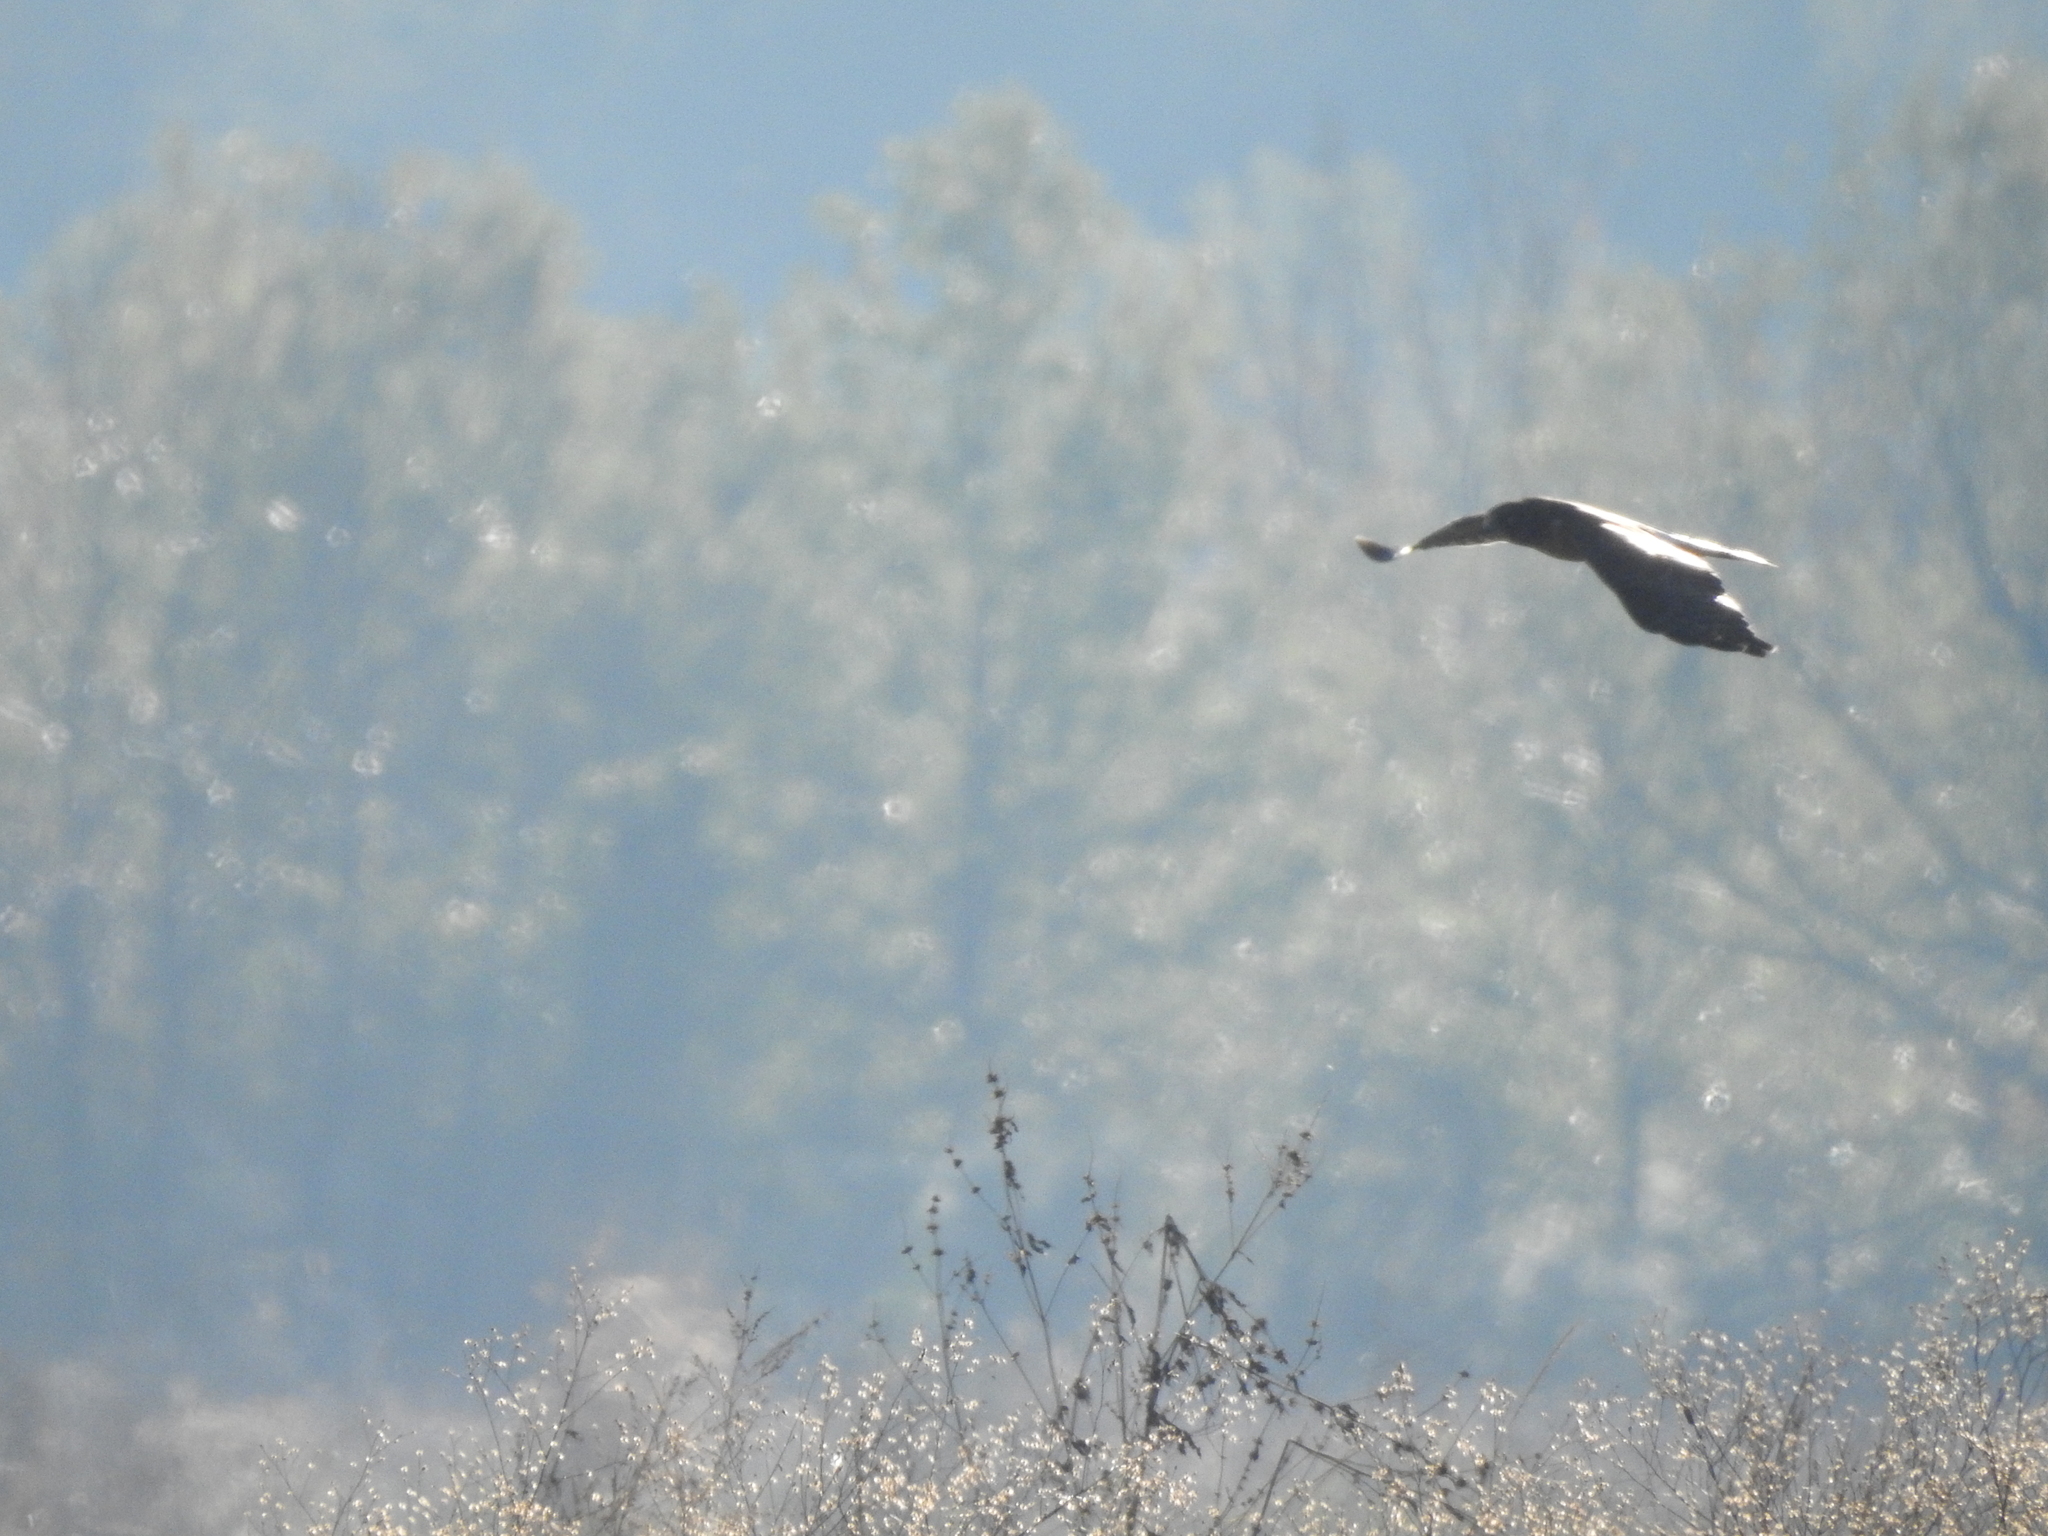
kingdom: Animalia
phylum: Chordata
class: Aves
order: Accipitriformes
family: Accipitridae
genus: Circus
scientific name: Circus cyaneus
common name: Hen harrier
